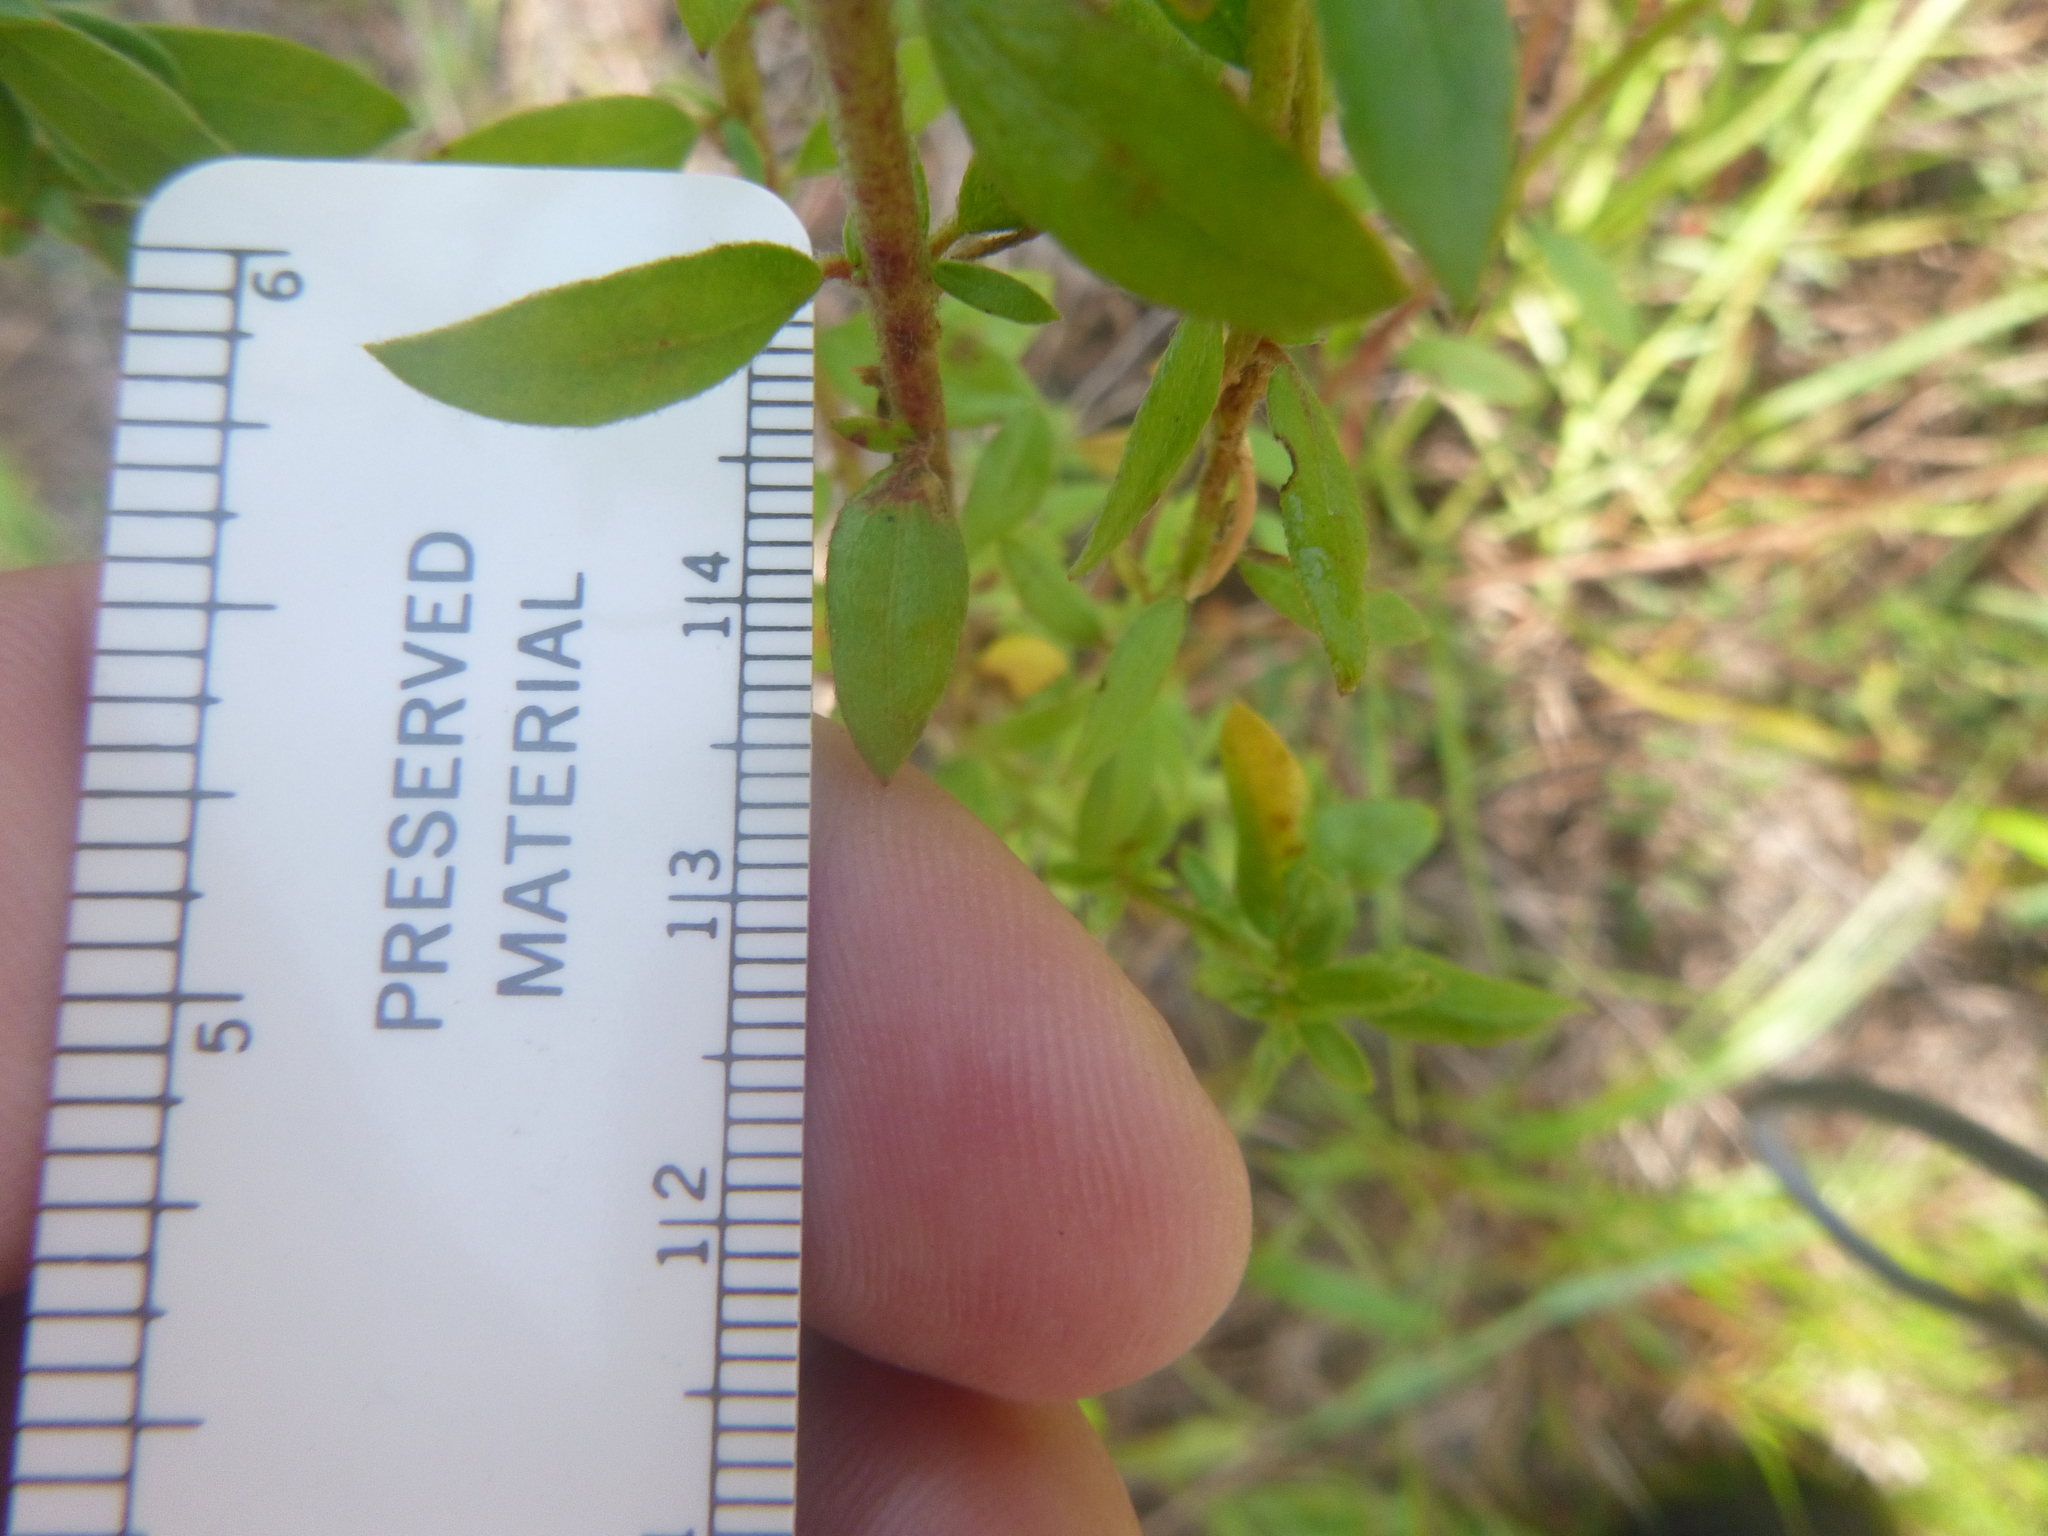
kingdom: Plantae
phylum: Tracheophyta
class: Magnoliopsida
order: Malvales
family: Cistaceae
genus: Lechea
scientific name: Lechea mucronata
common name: Hairy pinweed
